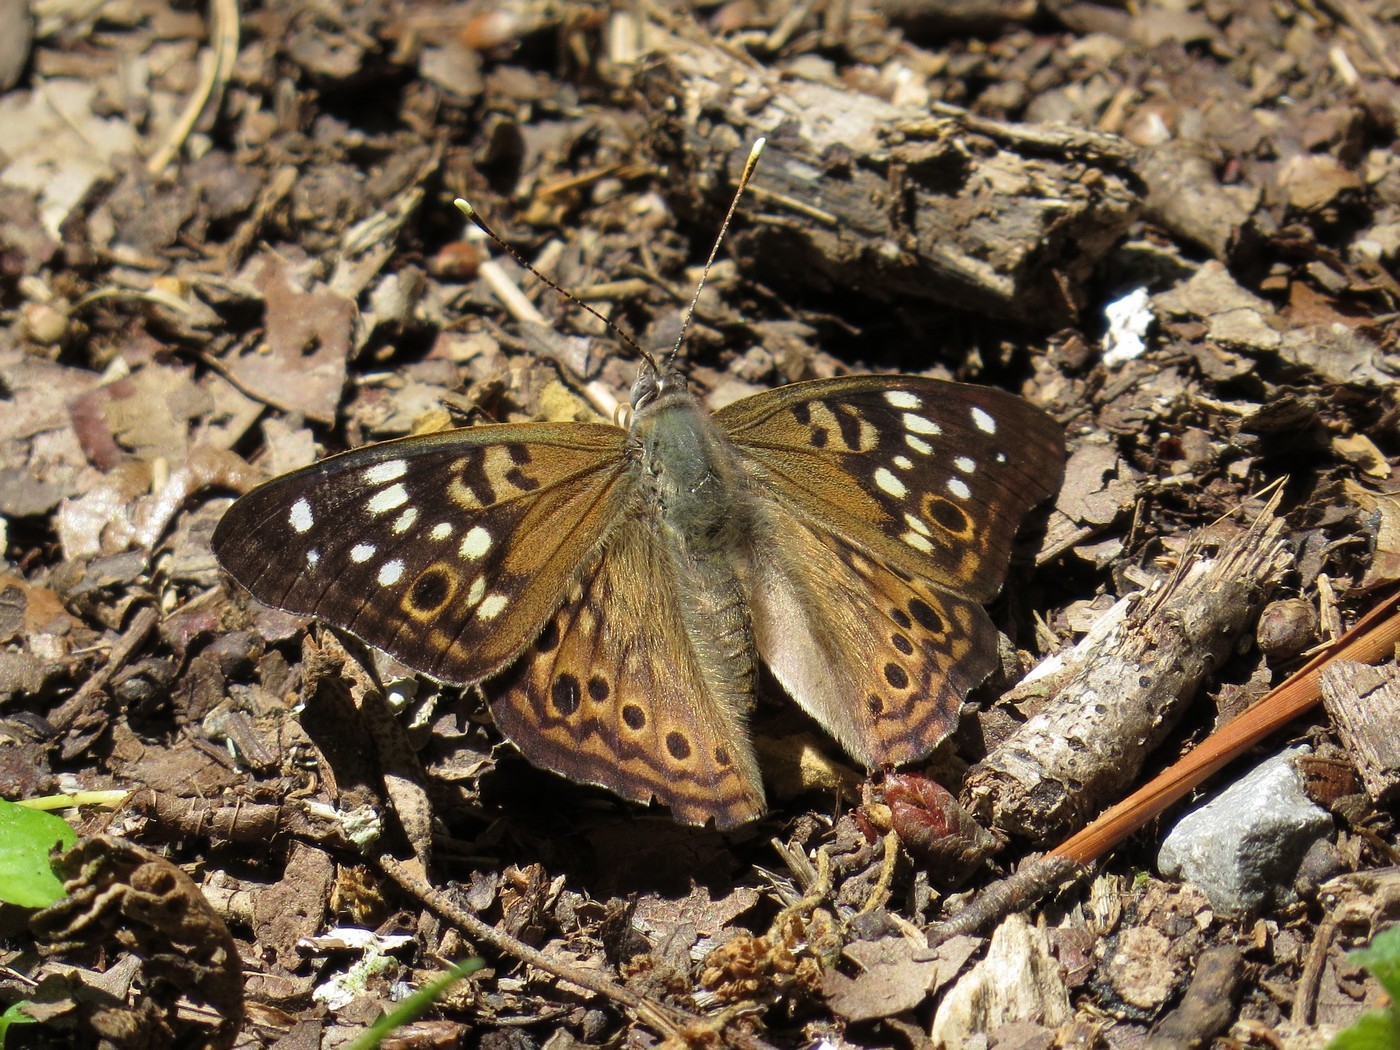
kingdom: Animalia
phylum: Arthropoda
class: Insecta
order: Lepidoptera
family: Nymphalidae
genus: Asterocampa
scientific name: Asterocampa celtis
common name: Hackberry emperor
